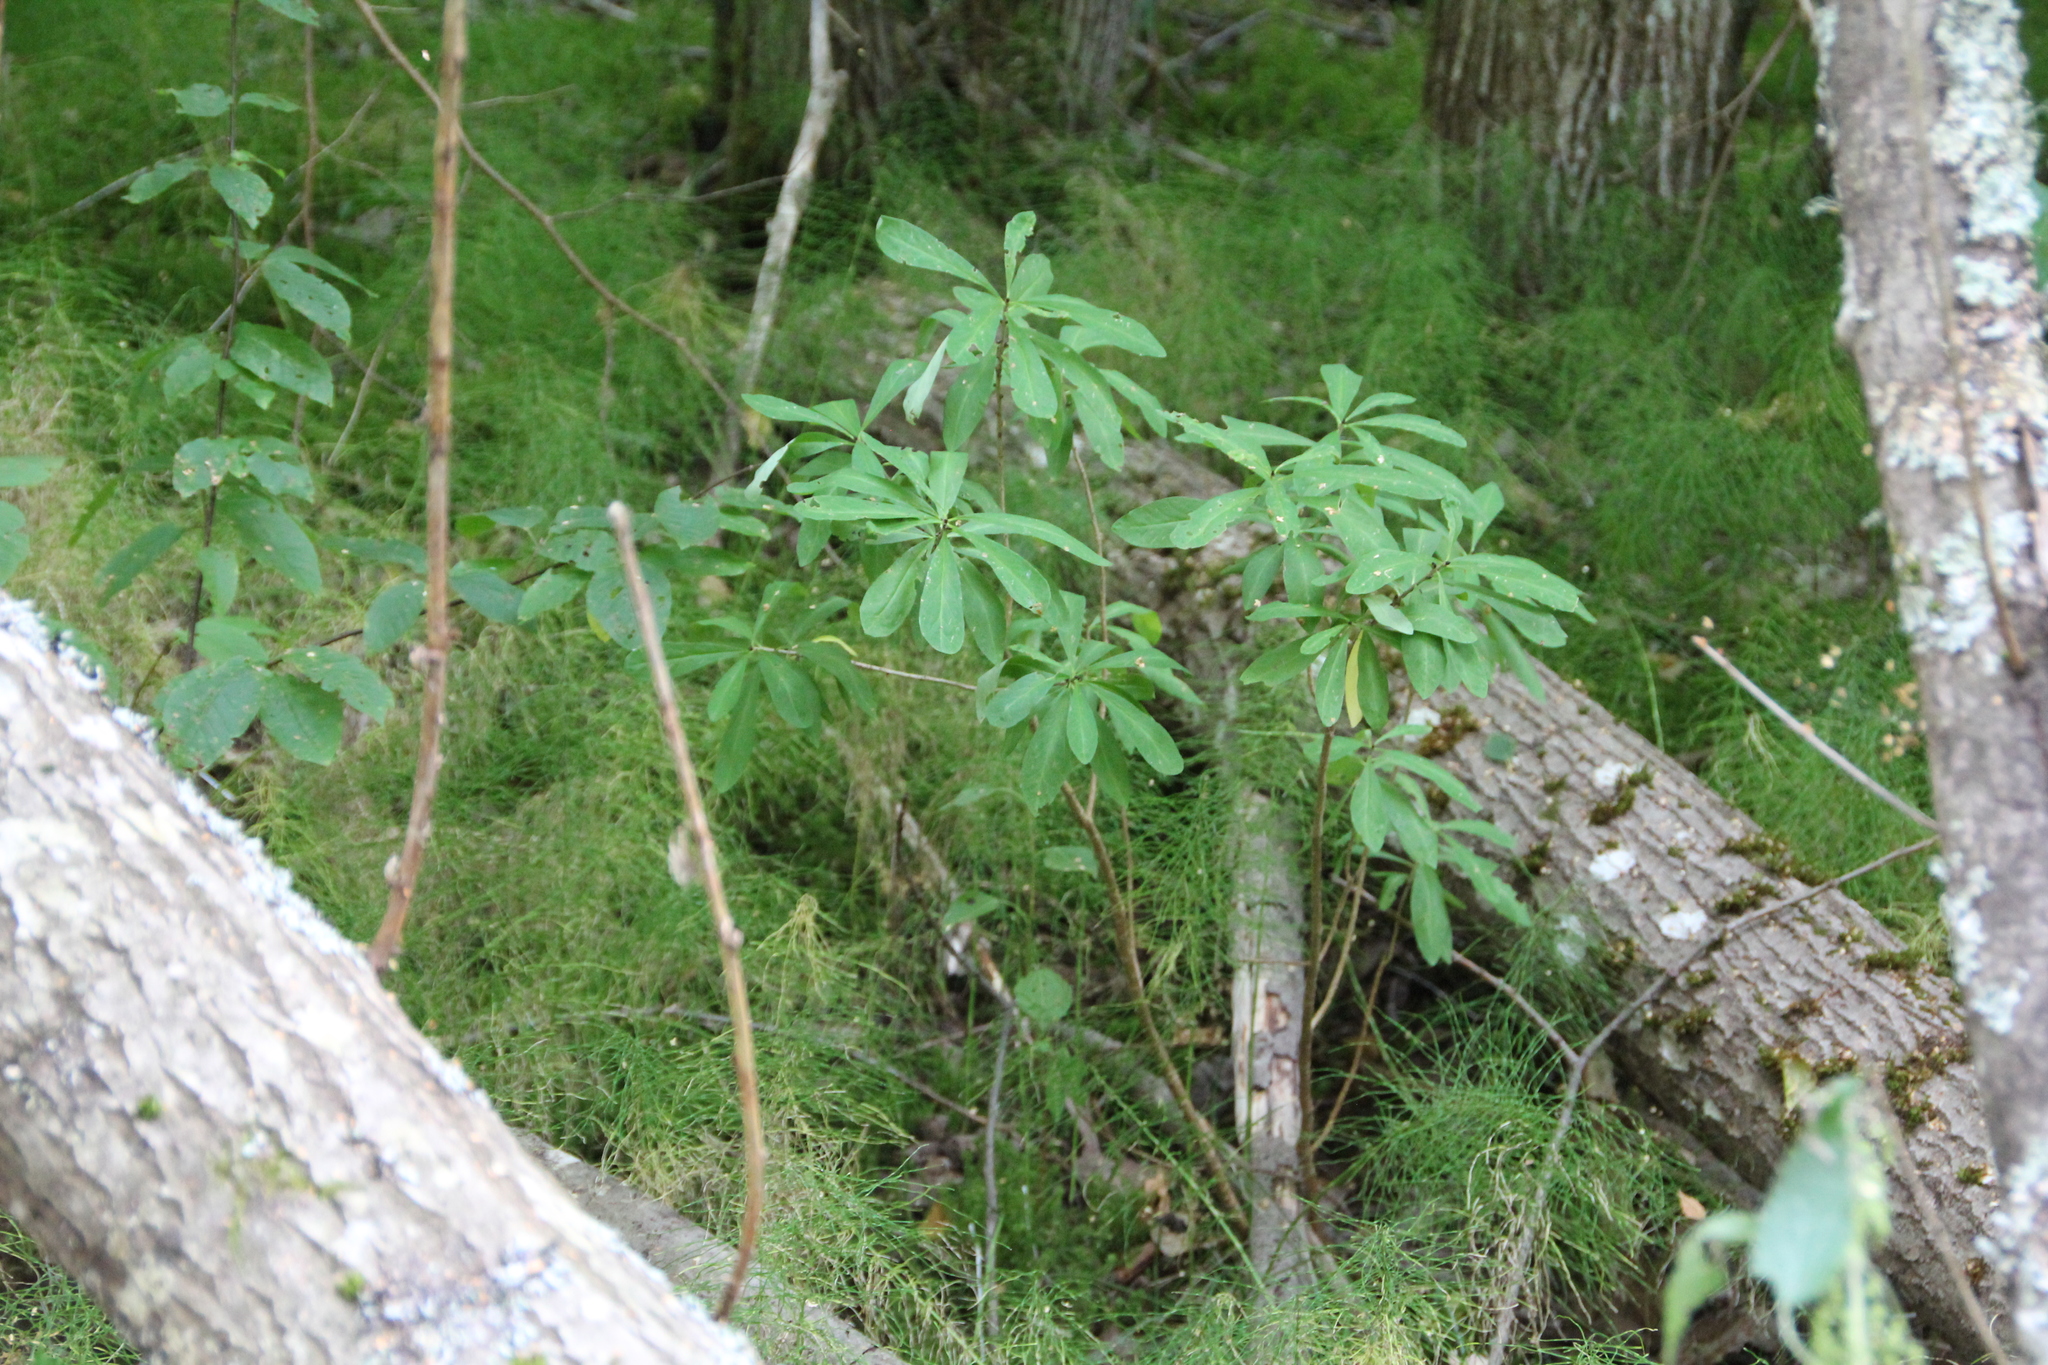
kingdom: Plantae
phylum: Tracheophyta
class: Magnoliopsida
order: Malvales
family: Thymelaeaceae
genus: Daphne
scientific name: Daphne mezereum
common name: Mezereon
